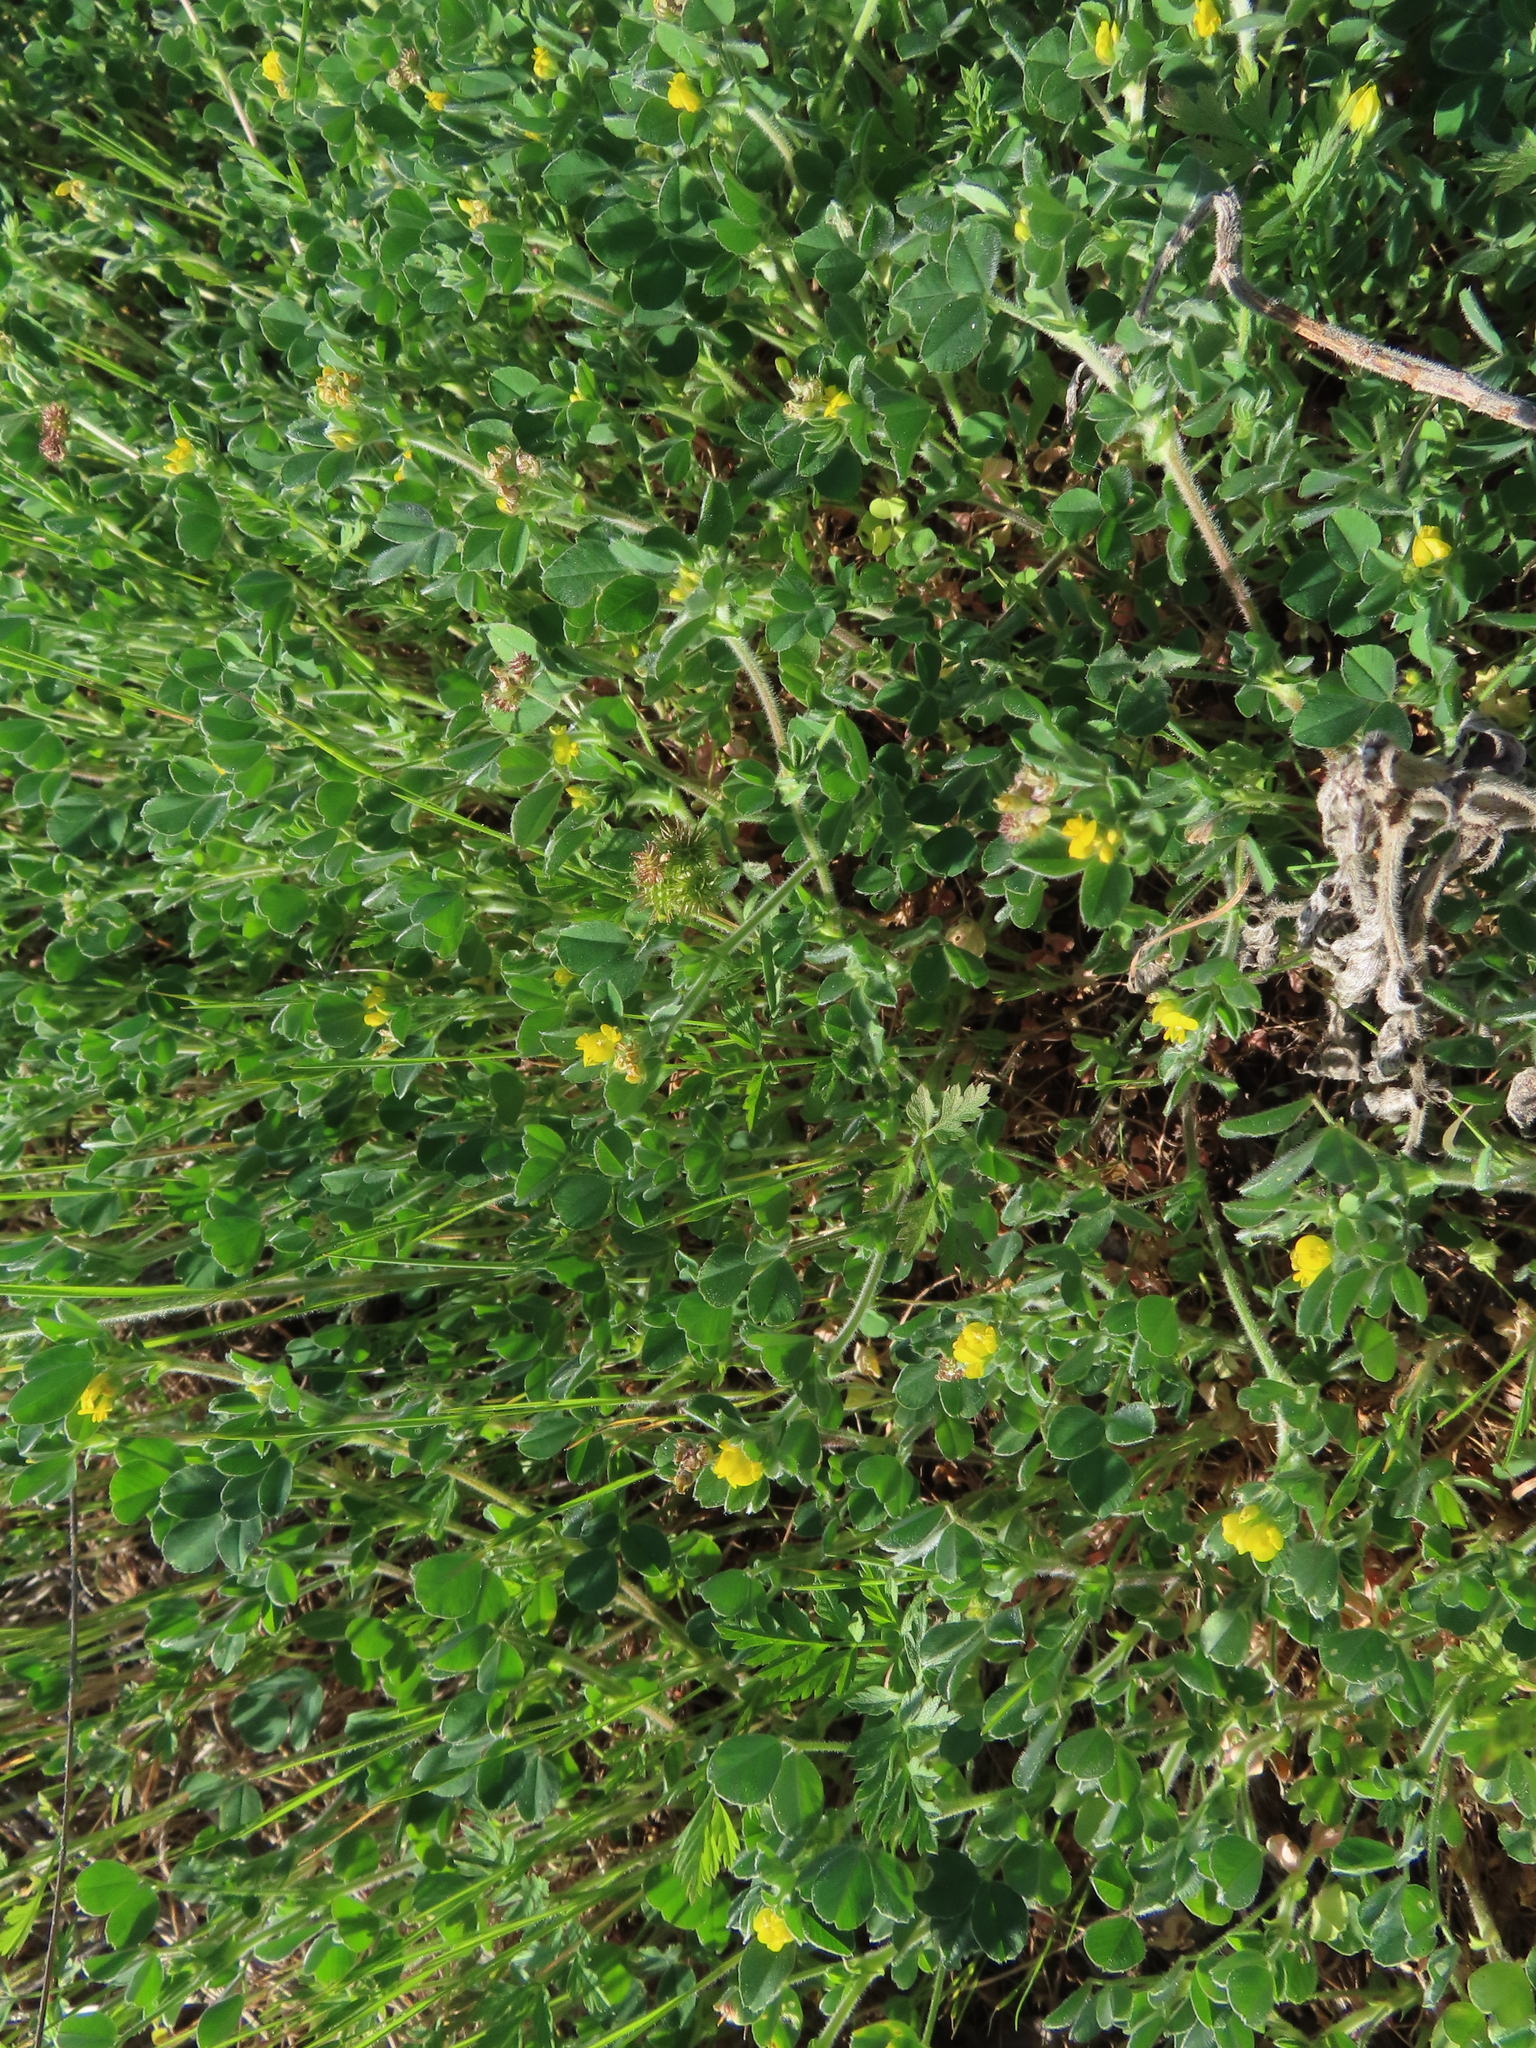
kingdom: Plantae
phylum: Tracheophyta
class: Magnoliopsida
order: Fabales
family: Fabaceae
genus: Medicago
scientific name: Medicago minima
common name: Little bur-clover
